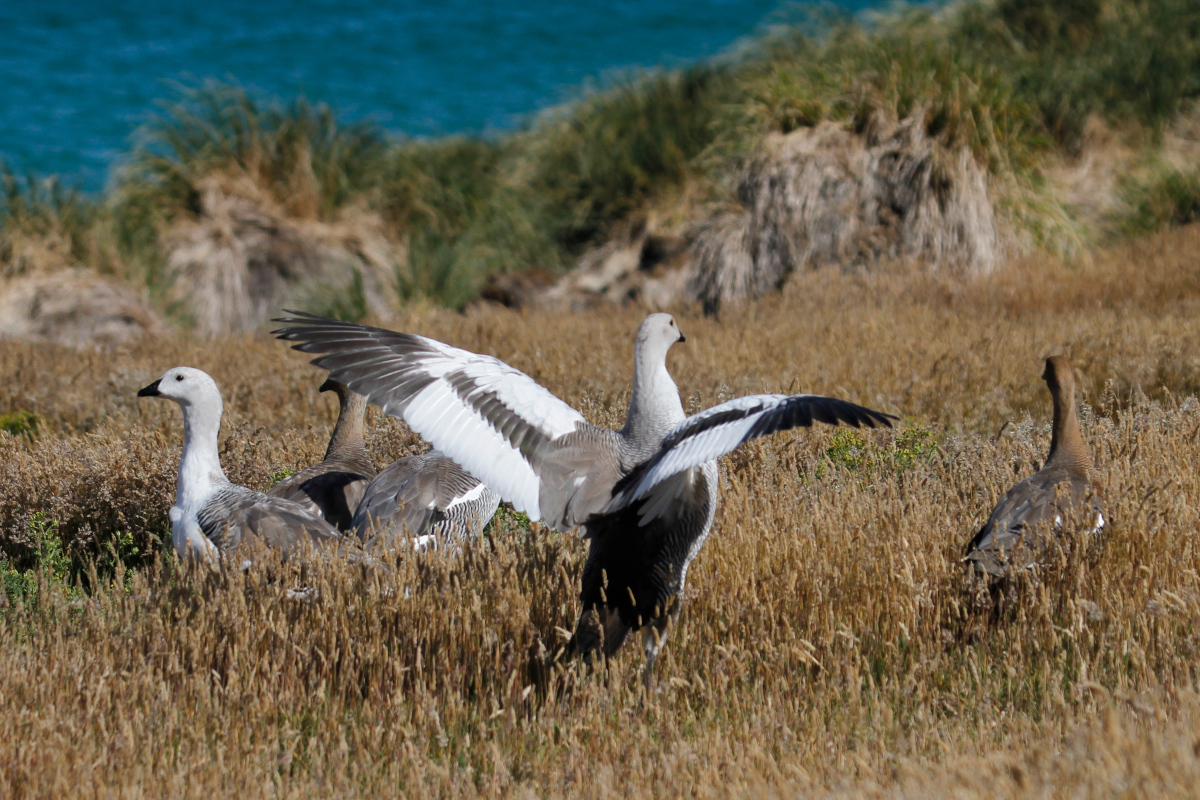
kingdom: Animalia
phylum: Chordata
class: Aves
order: Anseriformes
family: Anatidae
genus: Chloephaga
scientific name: Chloephaga picta
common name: Upland goose
